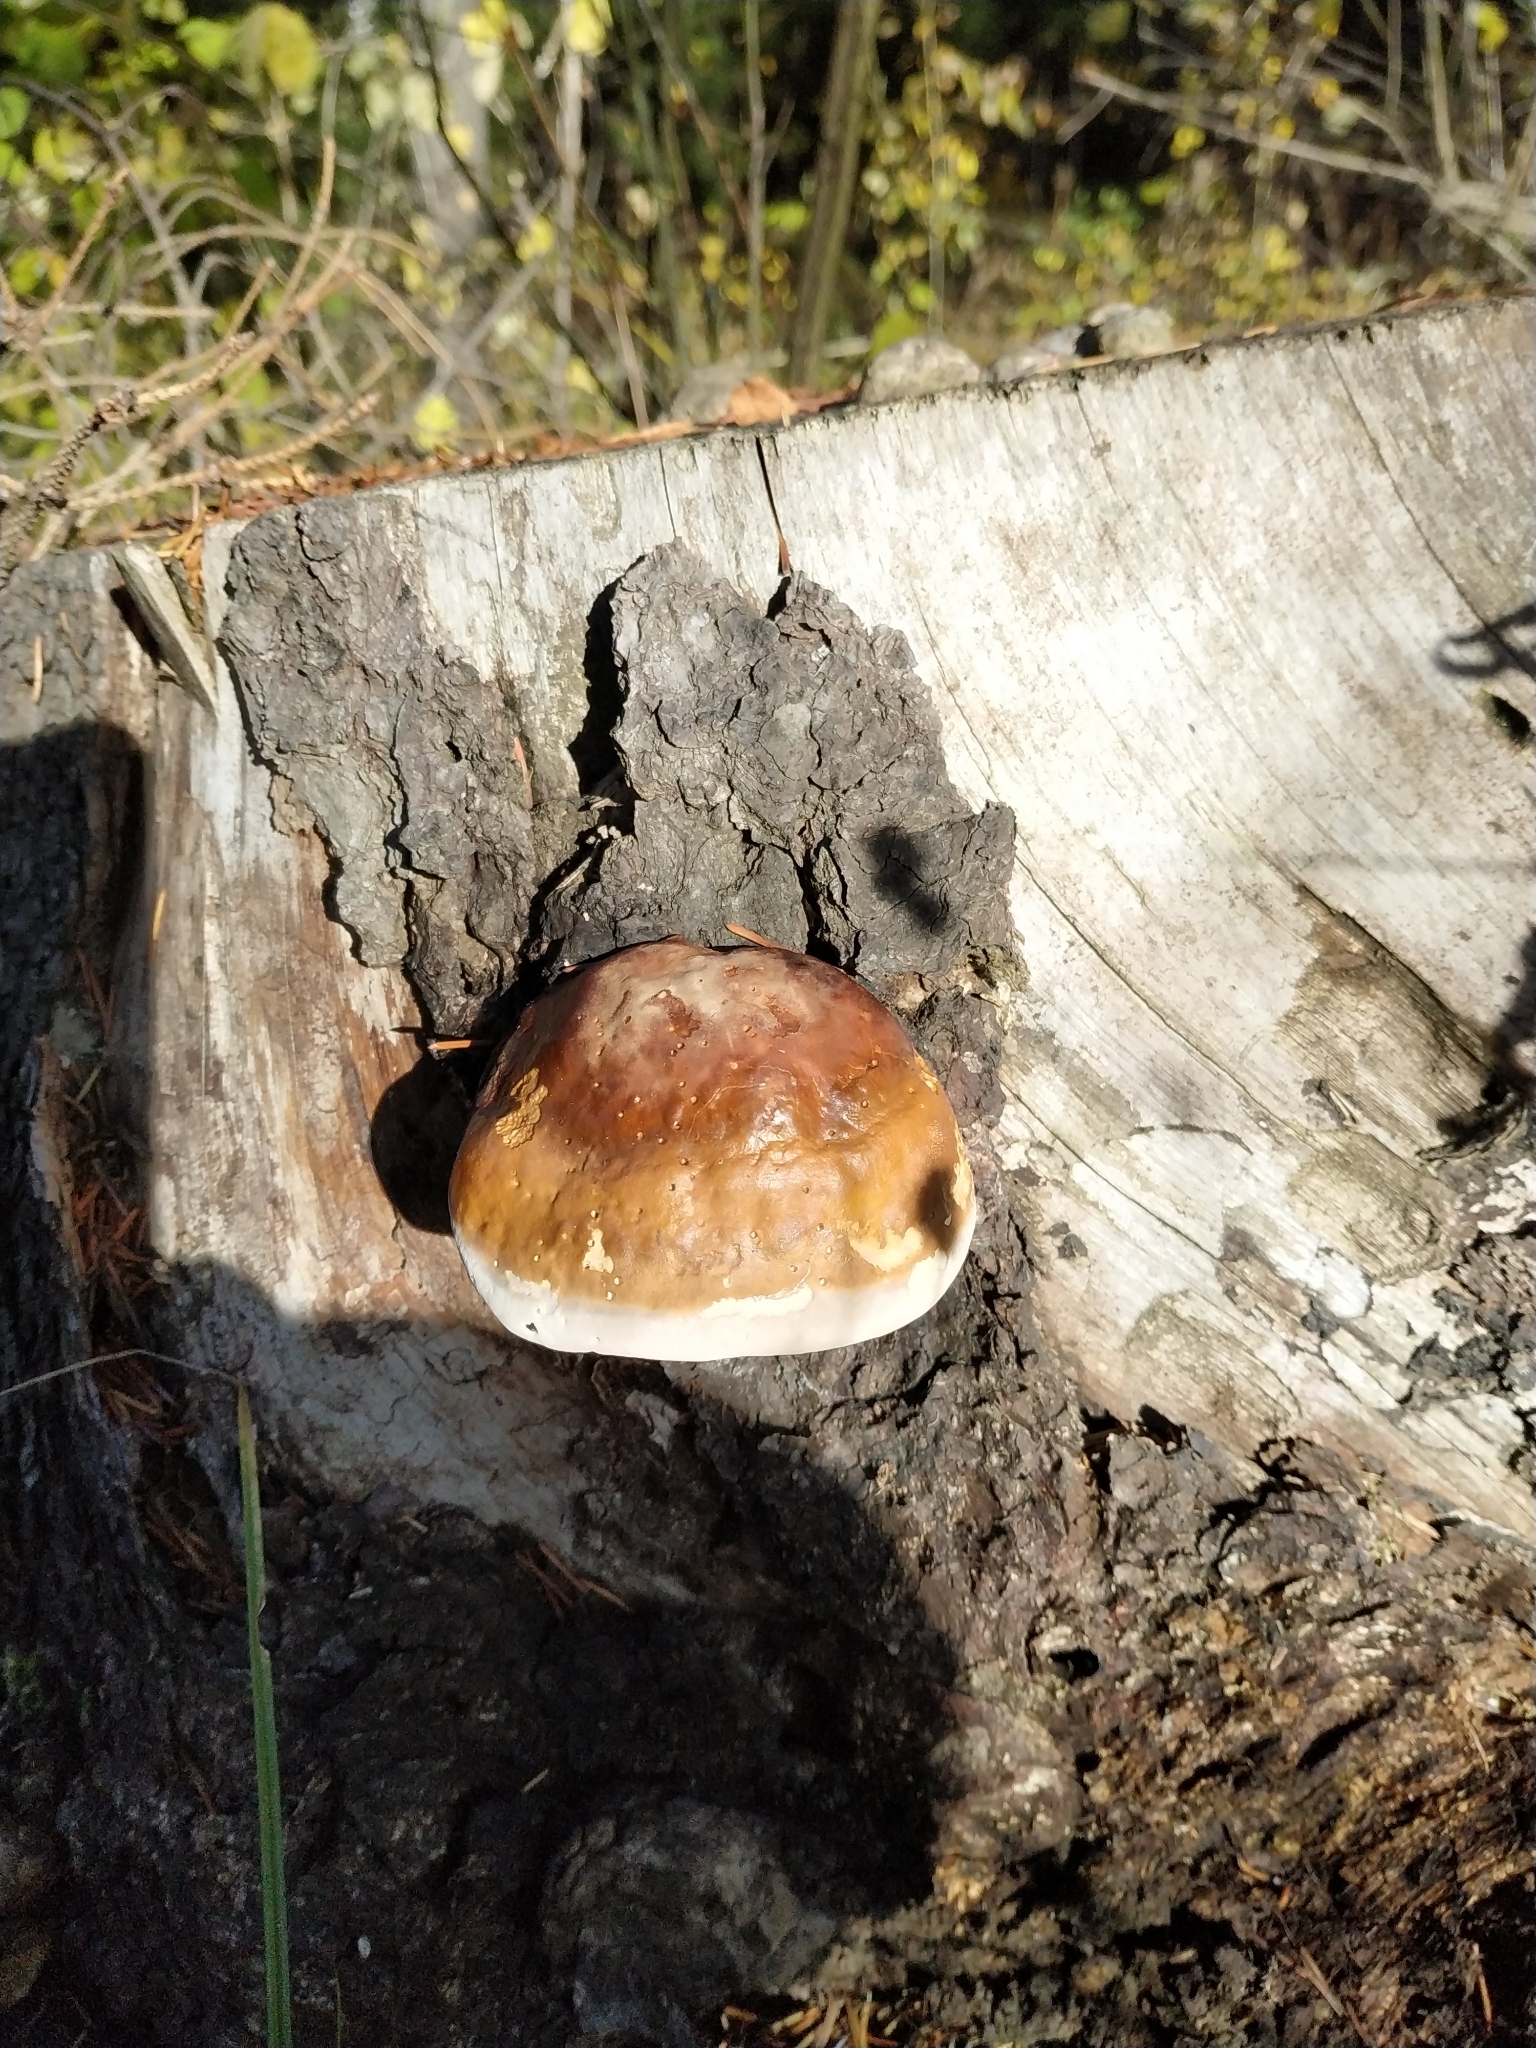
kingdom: Fungi
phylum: Basidiomycota
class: Agaricomycetes
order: Polyporales
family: Fomitopsidaceae
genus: Fomitopsis
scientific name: Fomitopsis pinicola
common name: Red-belted bracket
